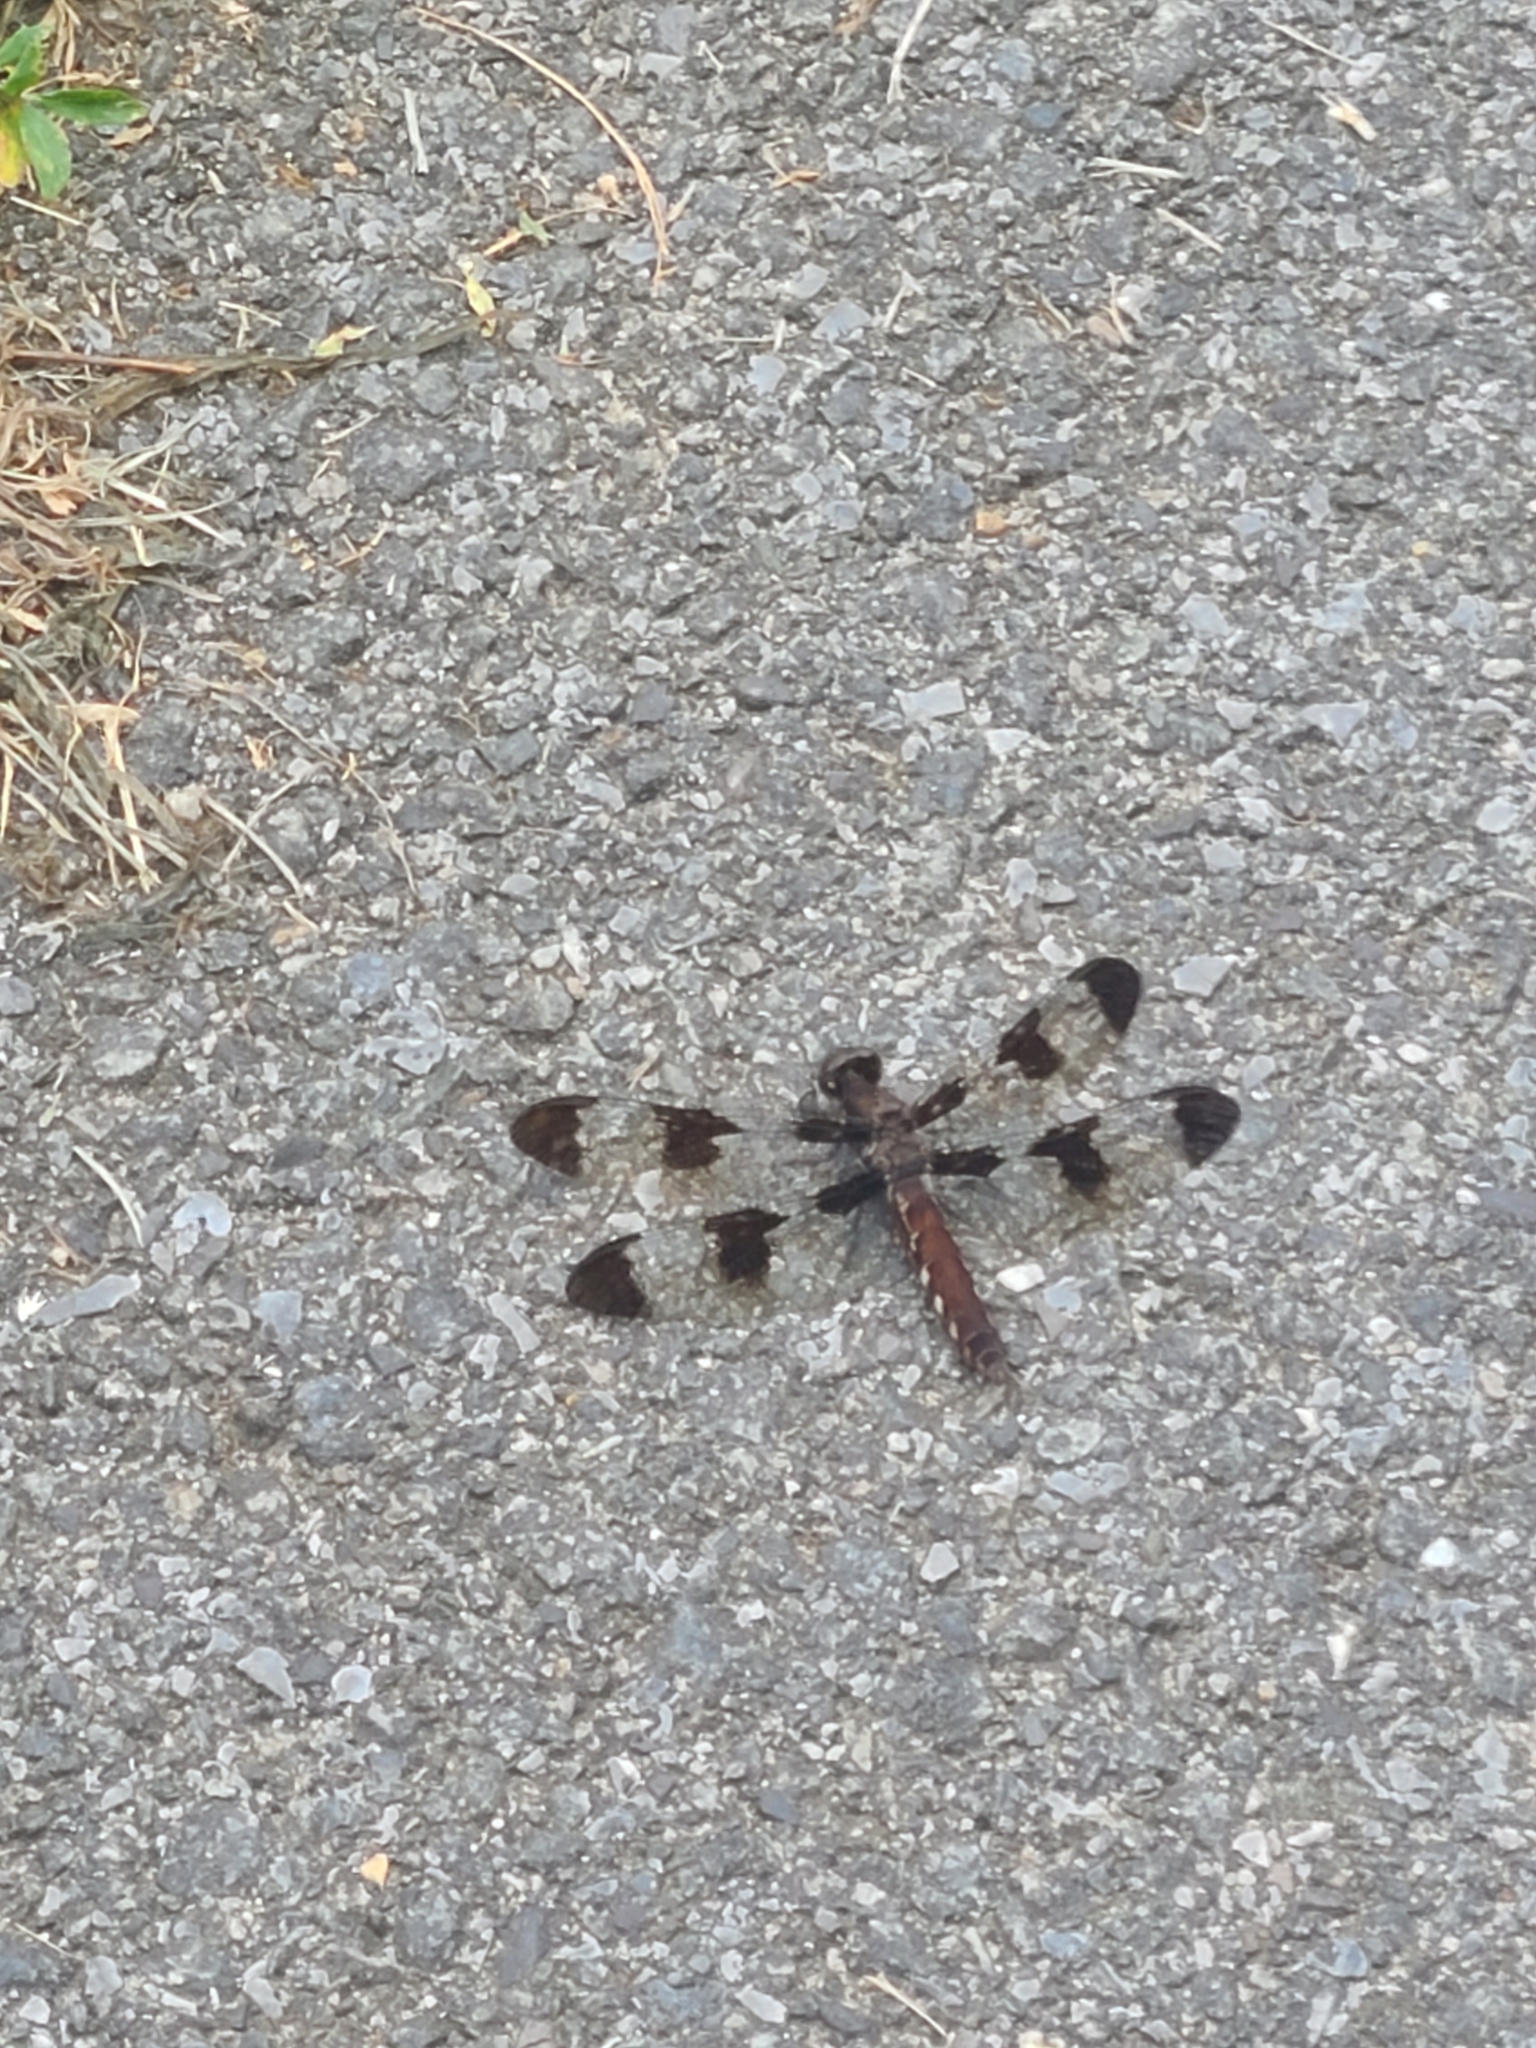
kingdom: Animalia
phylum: Arthropoda
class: Insecta
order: Odonata
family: Libellulidae
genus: Plathemis
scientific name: Plathemis lydia
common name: Common whitetail
